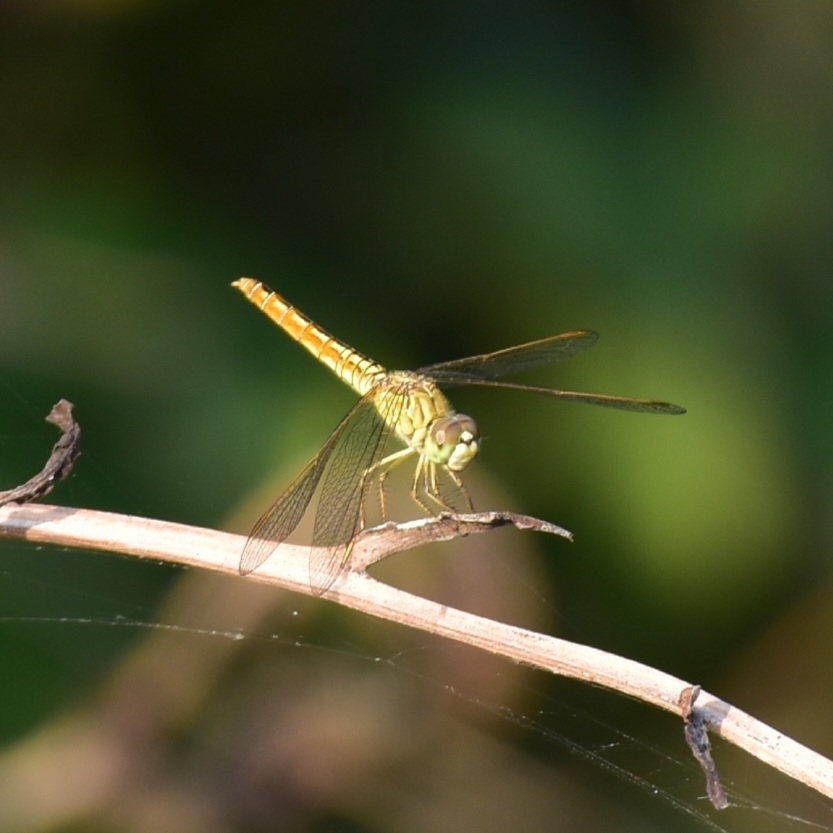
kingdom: Animalia
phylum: Arthropoda
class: Insecta
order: Odonata
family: Libellulidae
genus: Brachythemis
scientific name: Brachythemis contaminata
